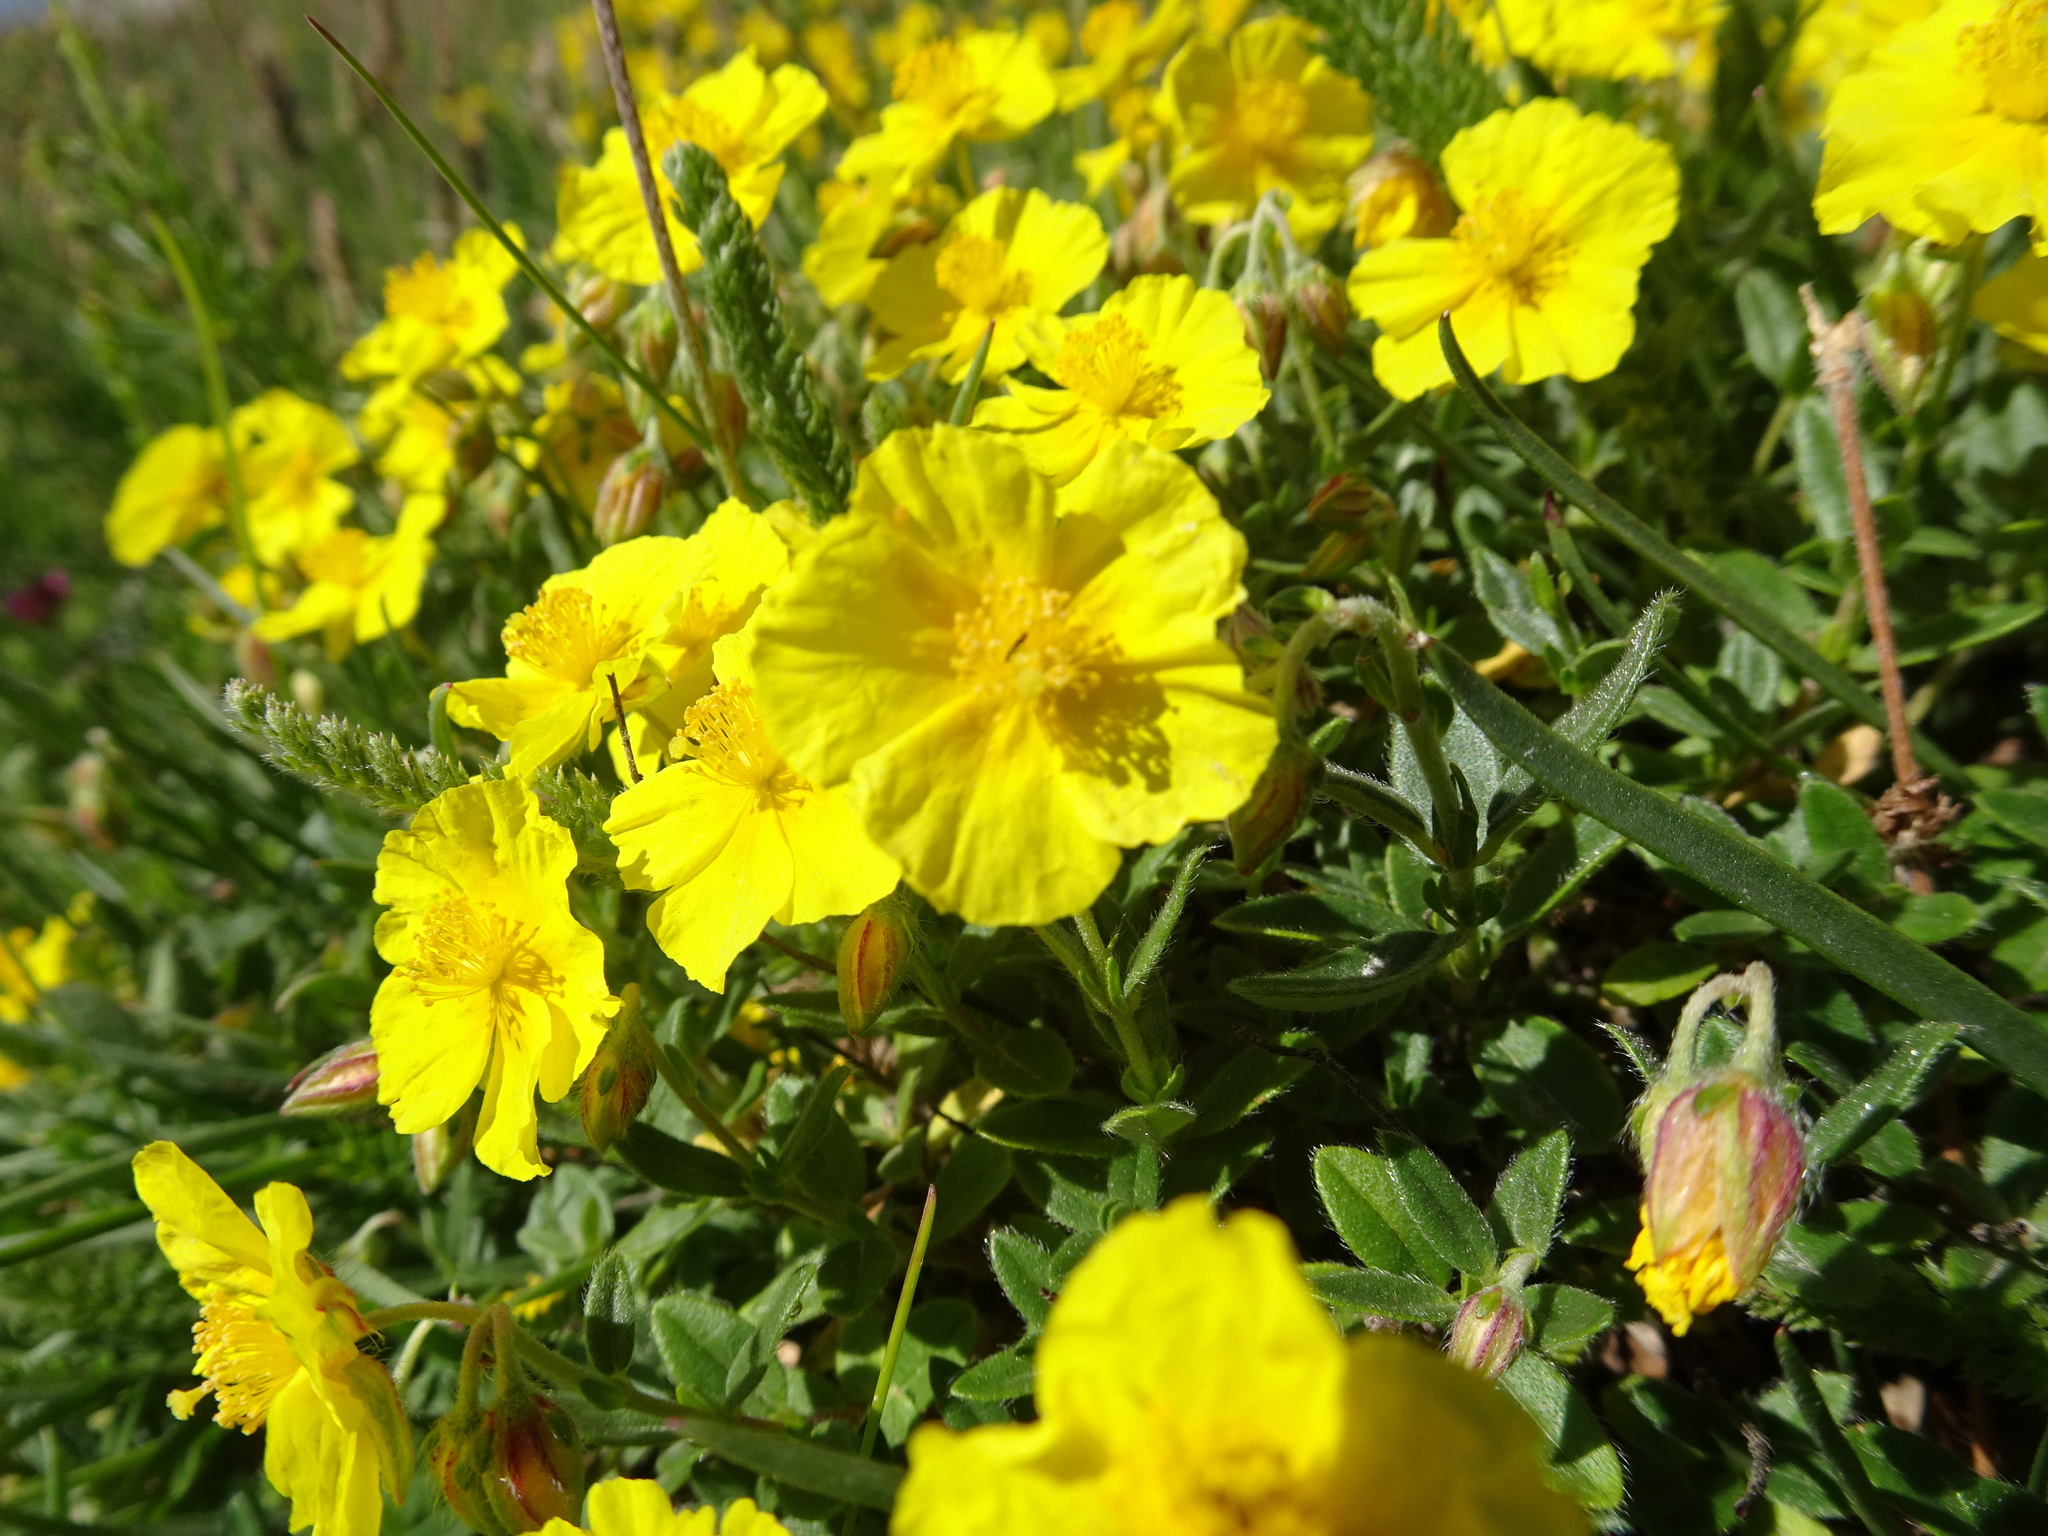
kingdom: Plantae
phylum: Tracheophyta
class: Magnoliopsida
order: Malvales
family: Cistaceae
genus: Helianthemum
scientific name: Helianthemum nummularium
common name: Common rock-rose
